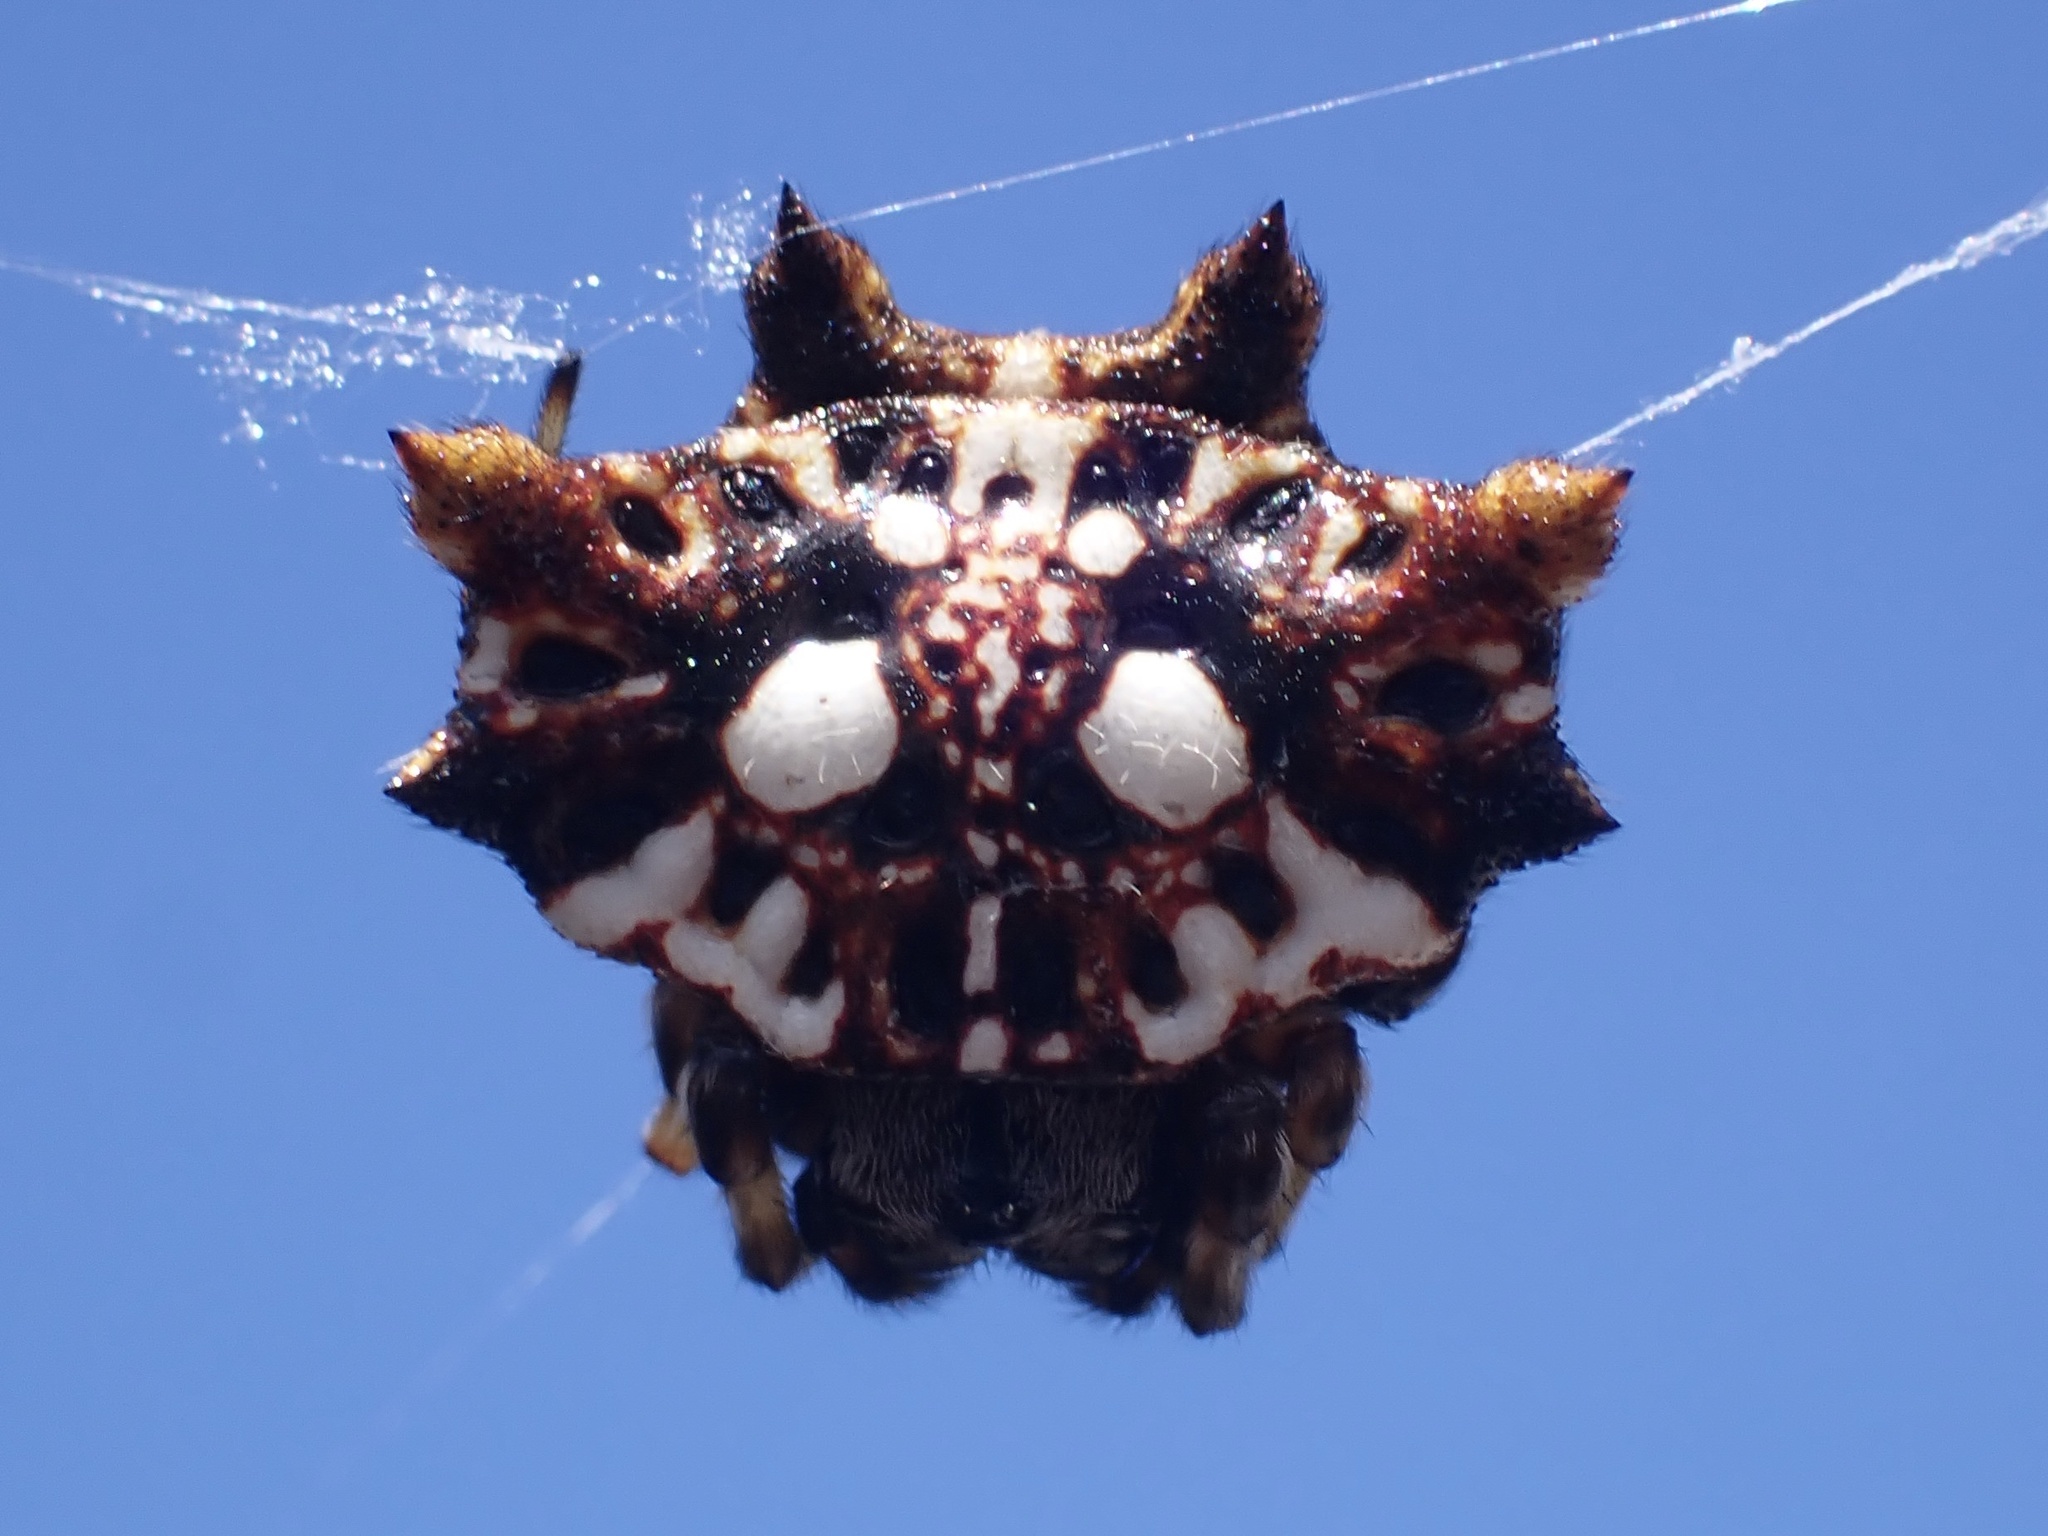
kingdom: Animalia
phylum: Arthropoda
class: Arachnida
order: Araneae
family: Araneidae
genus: Thelacantha
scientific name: Thelacantha brevispina
